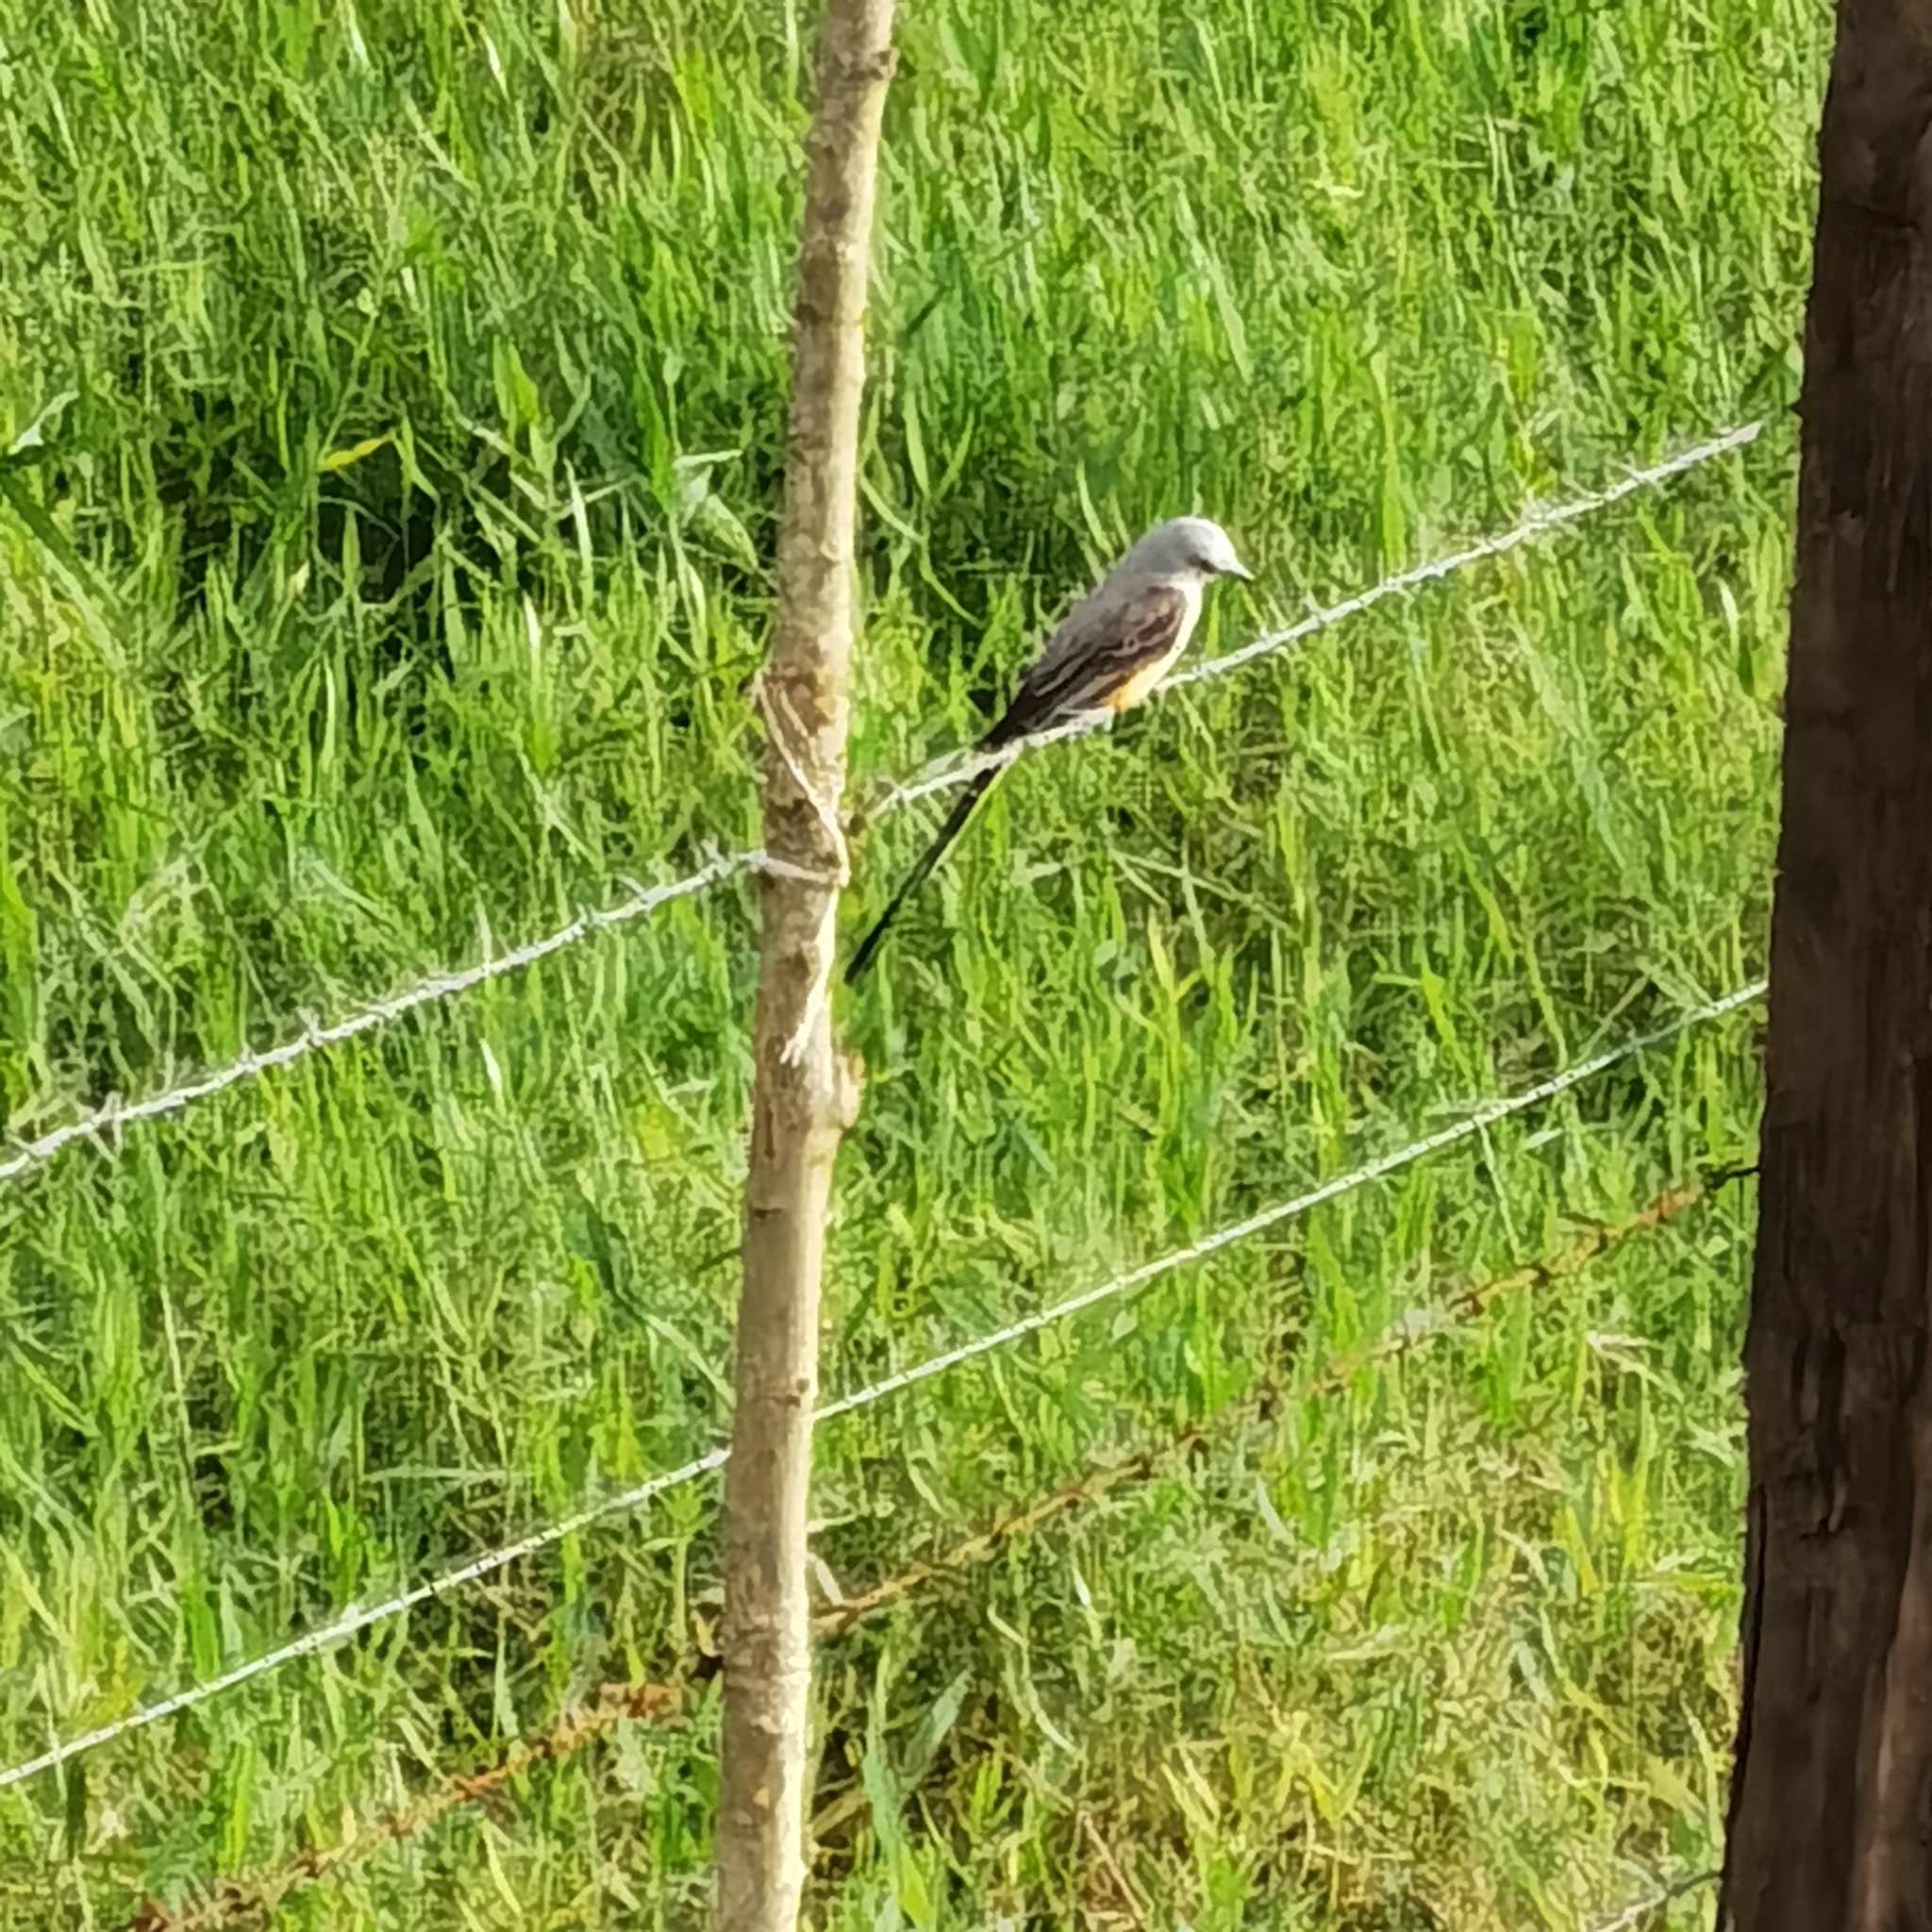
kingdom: Animalia
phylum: Chordata
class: Aves
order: Passeriformes
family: Tyrannidae
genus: Tyrannus
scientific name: Tyrannus forficatus
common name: Scissor-tailed flycatcher
